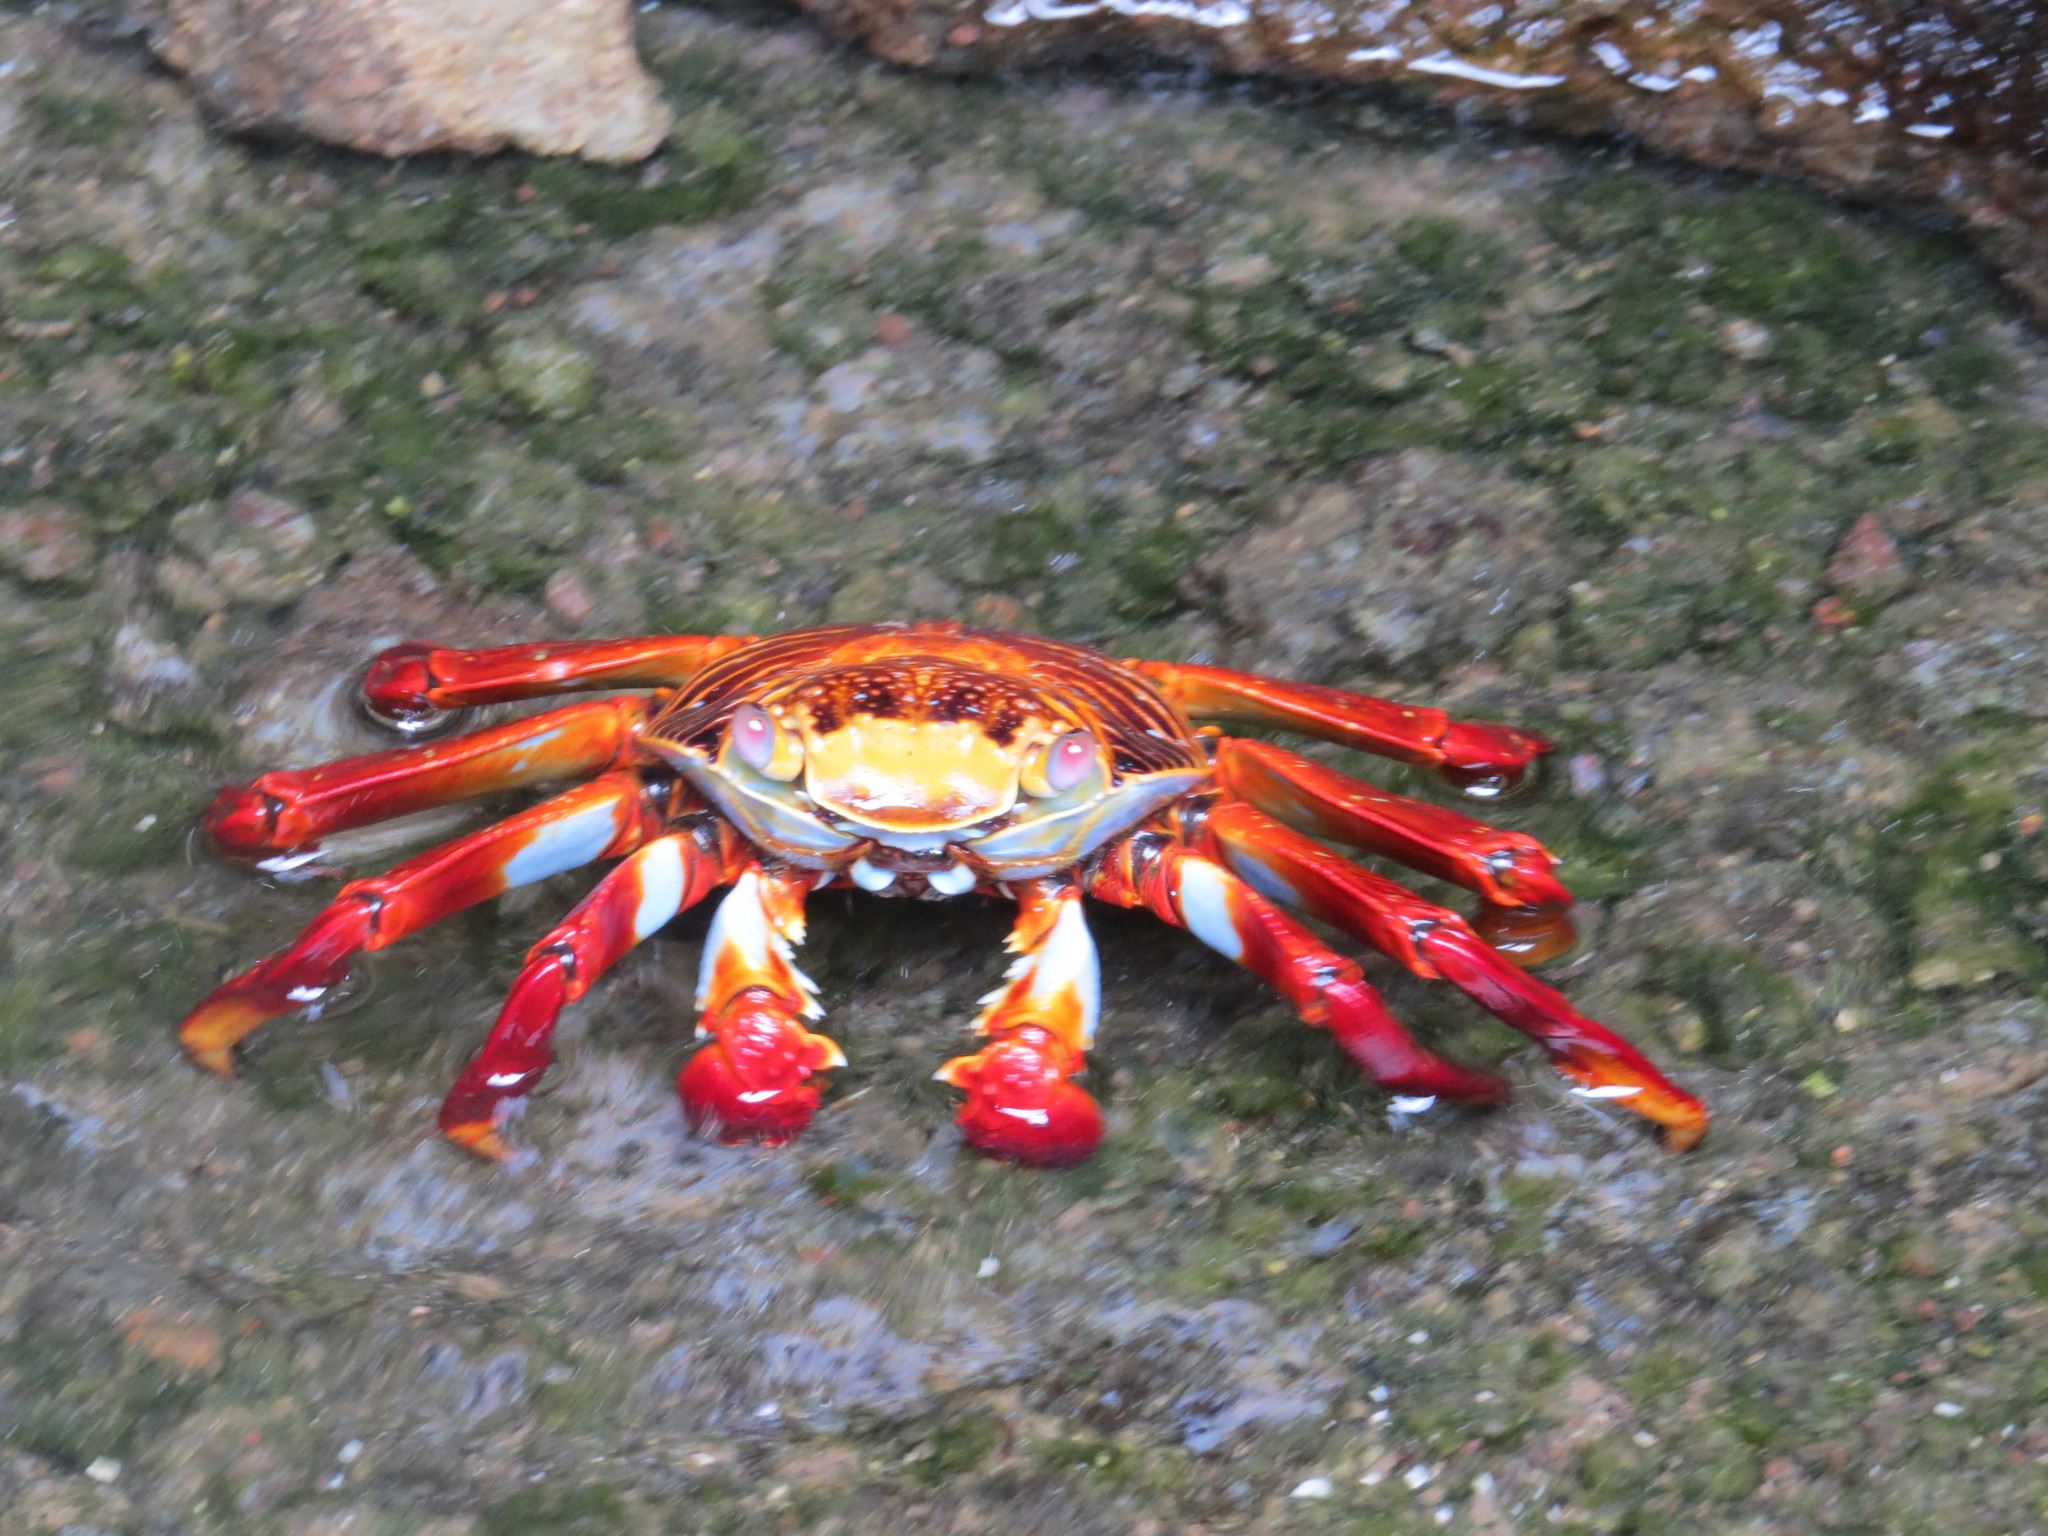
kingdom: Animalia
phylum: Arthropoda
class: Malacostraca
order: Decapoda
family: Grapsidae
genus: Grapsus
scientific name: Grapsus grapsus
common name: Sally lightfoot
